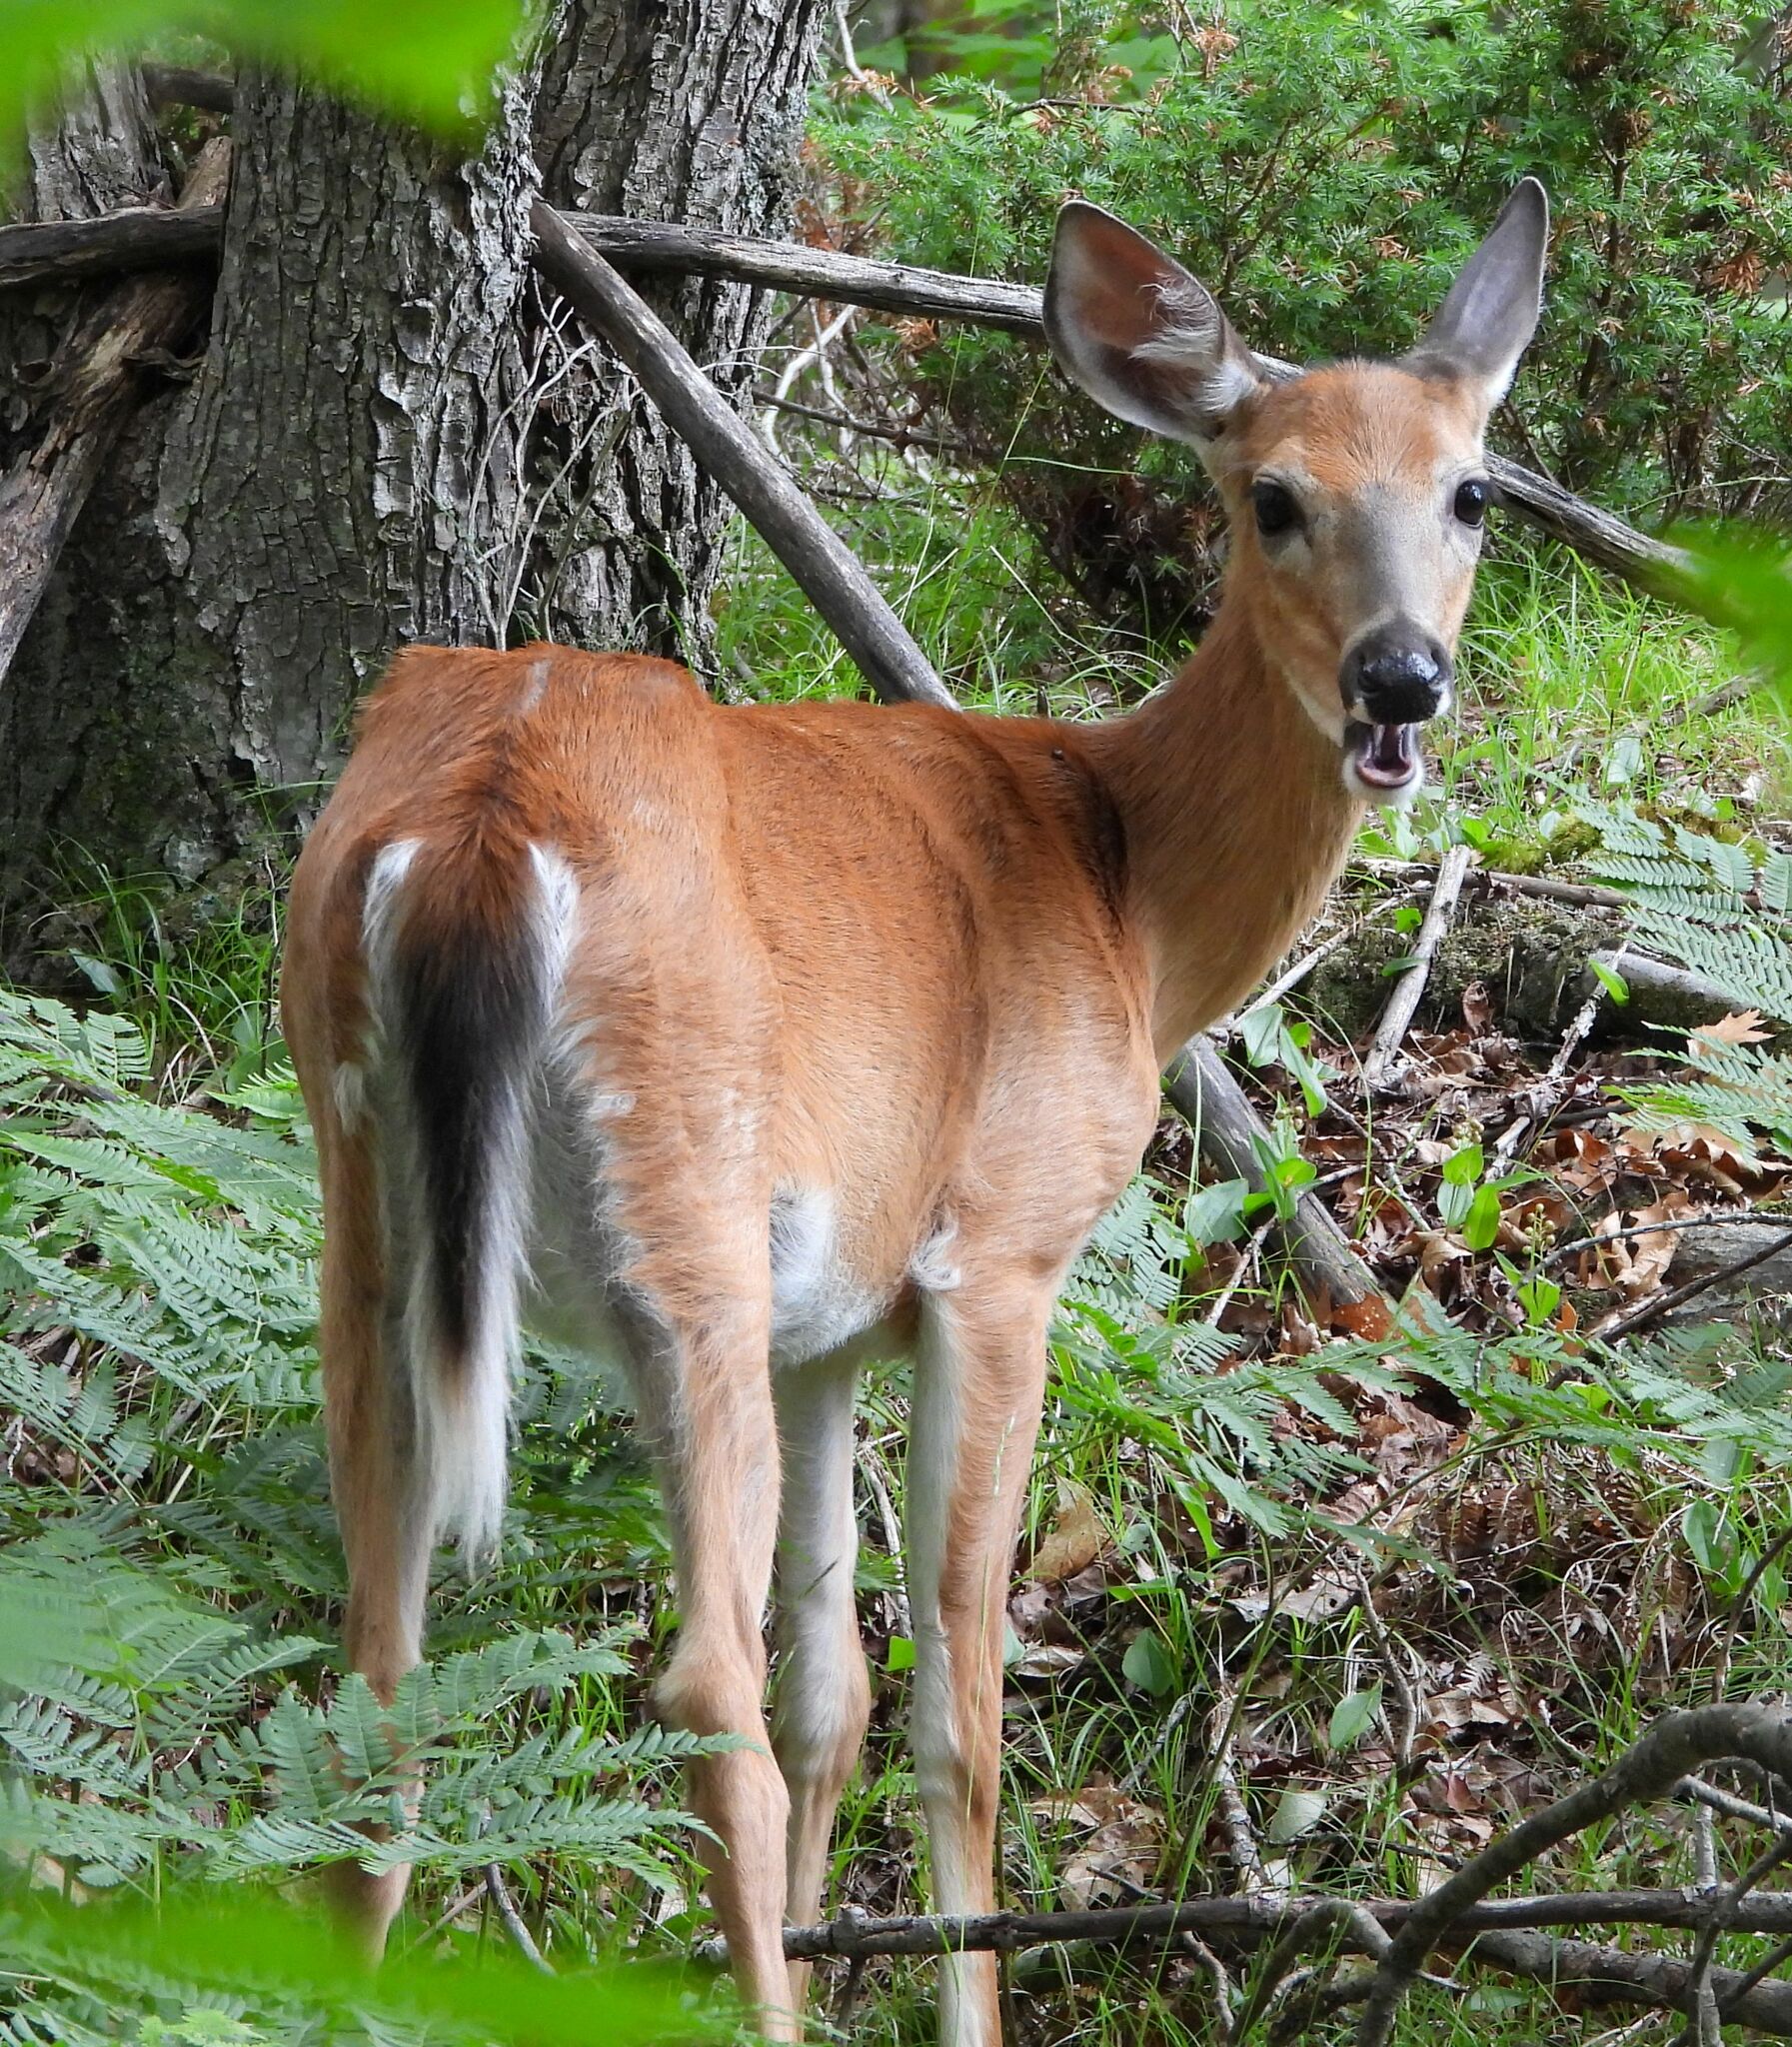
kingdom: Animalia
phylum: Chordata
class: Mammalia
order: Artiodactyla
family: Cervidae
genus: Odocoileus
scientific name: Odocoileus virginianus
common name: White-tailed deer
